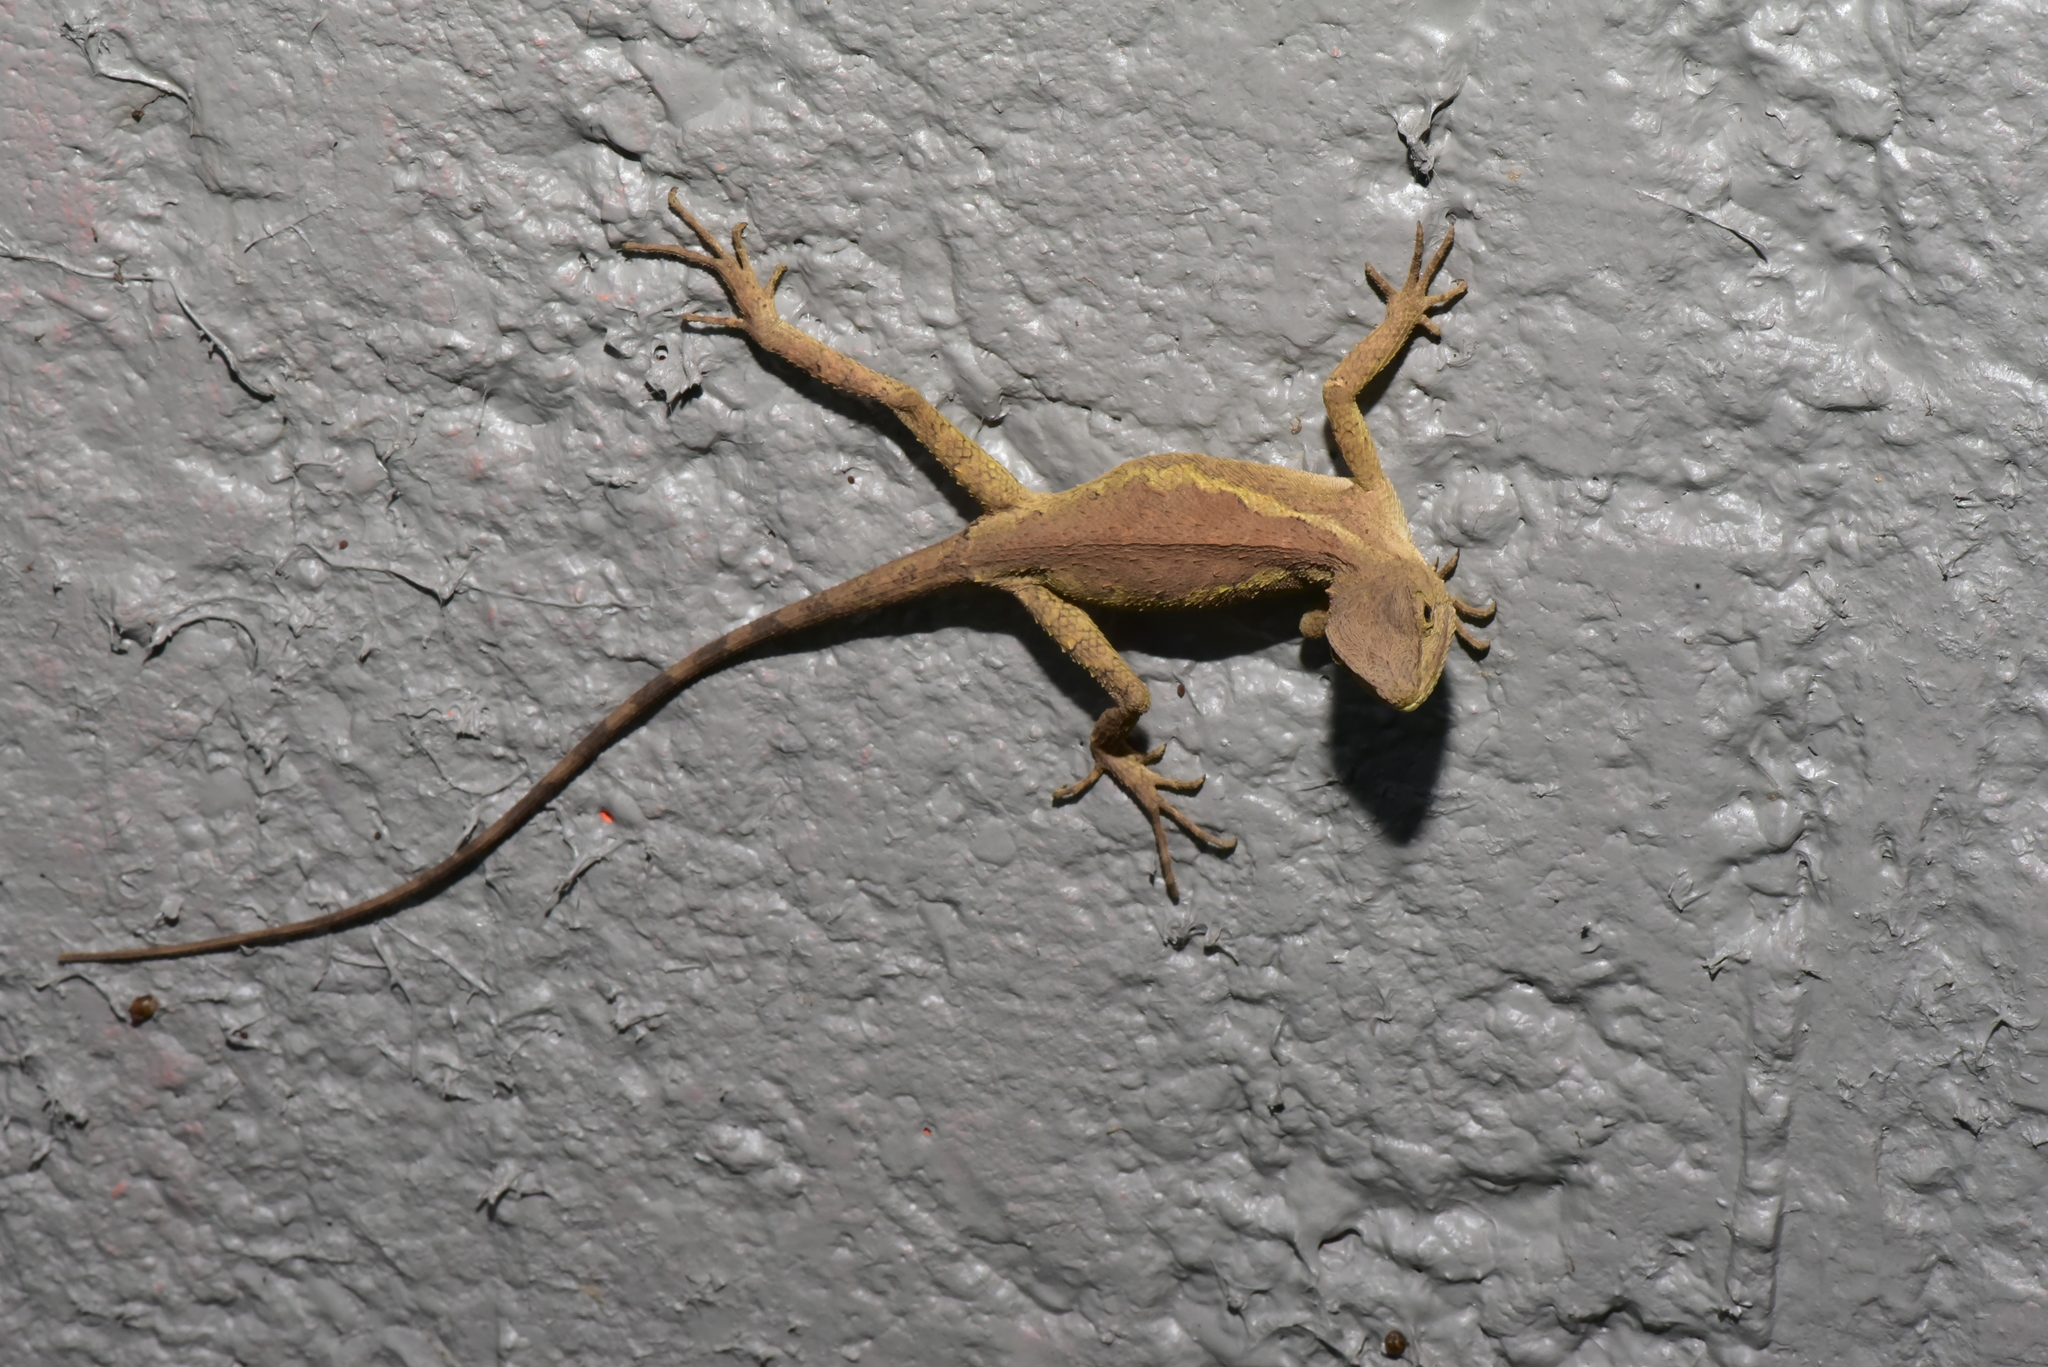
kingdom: Animalia
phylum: Chordata
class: Squamata
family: Agamidae
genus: Diploderma
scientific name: Diploderma swinhonis
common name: Taiwan japalure
